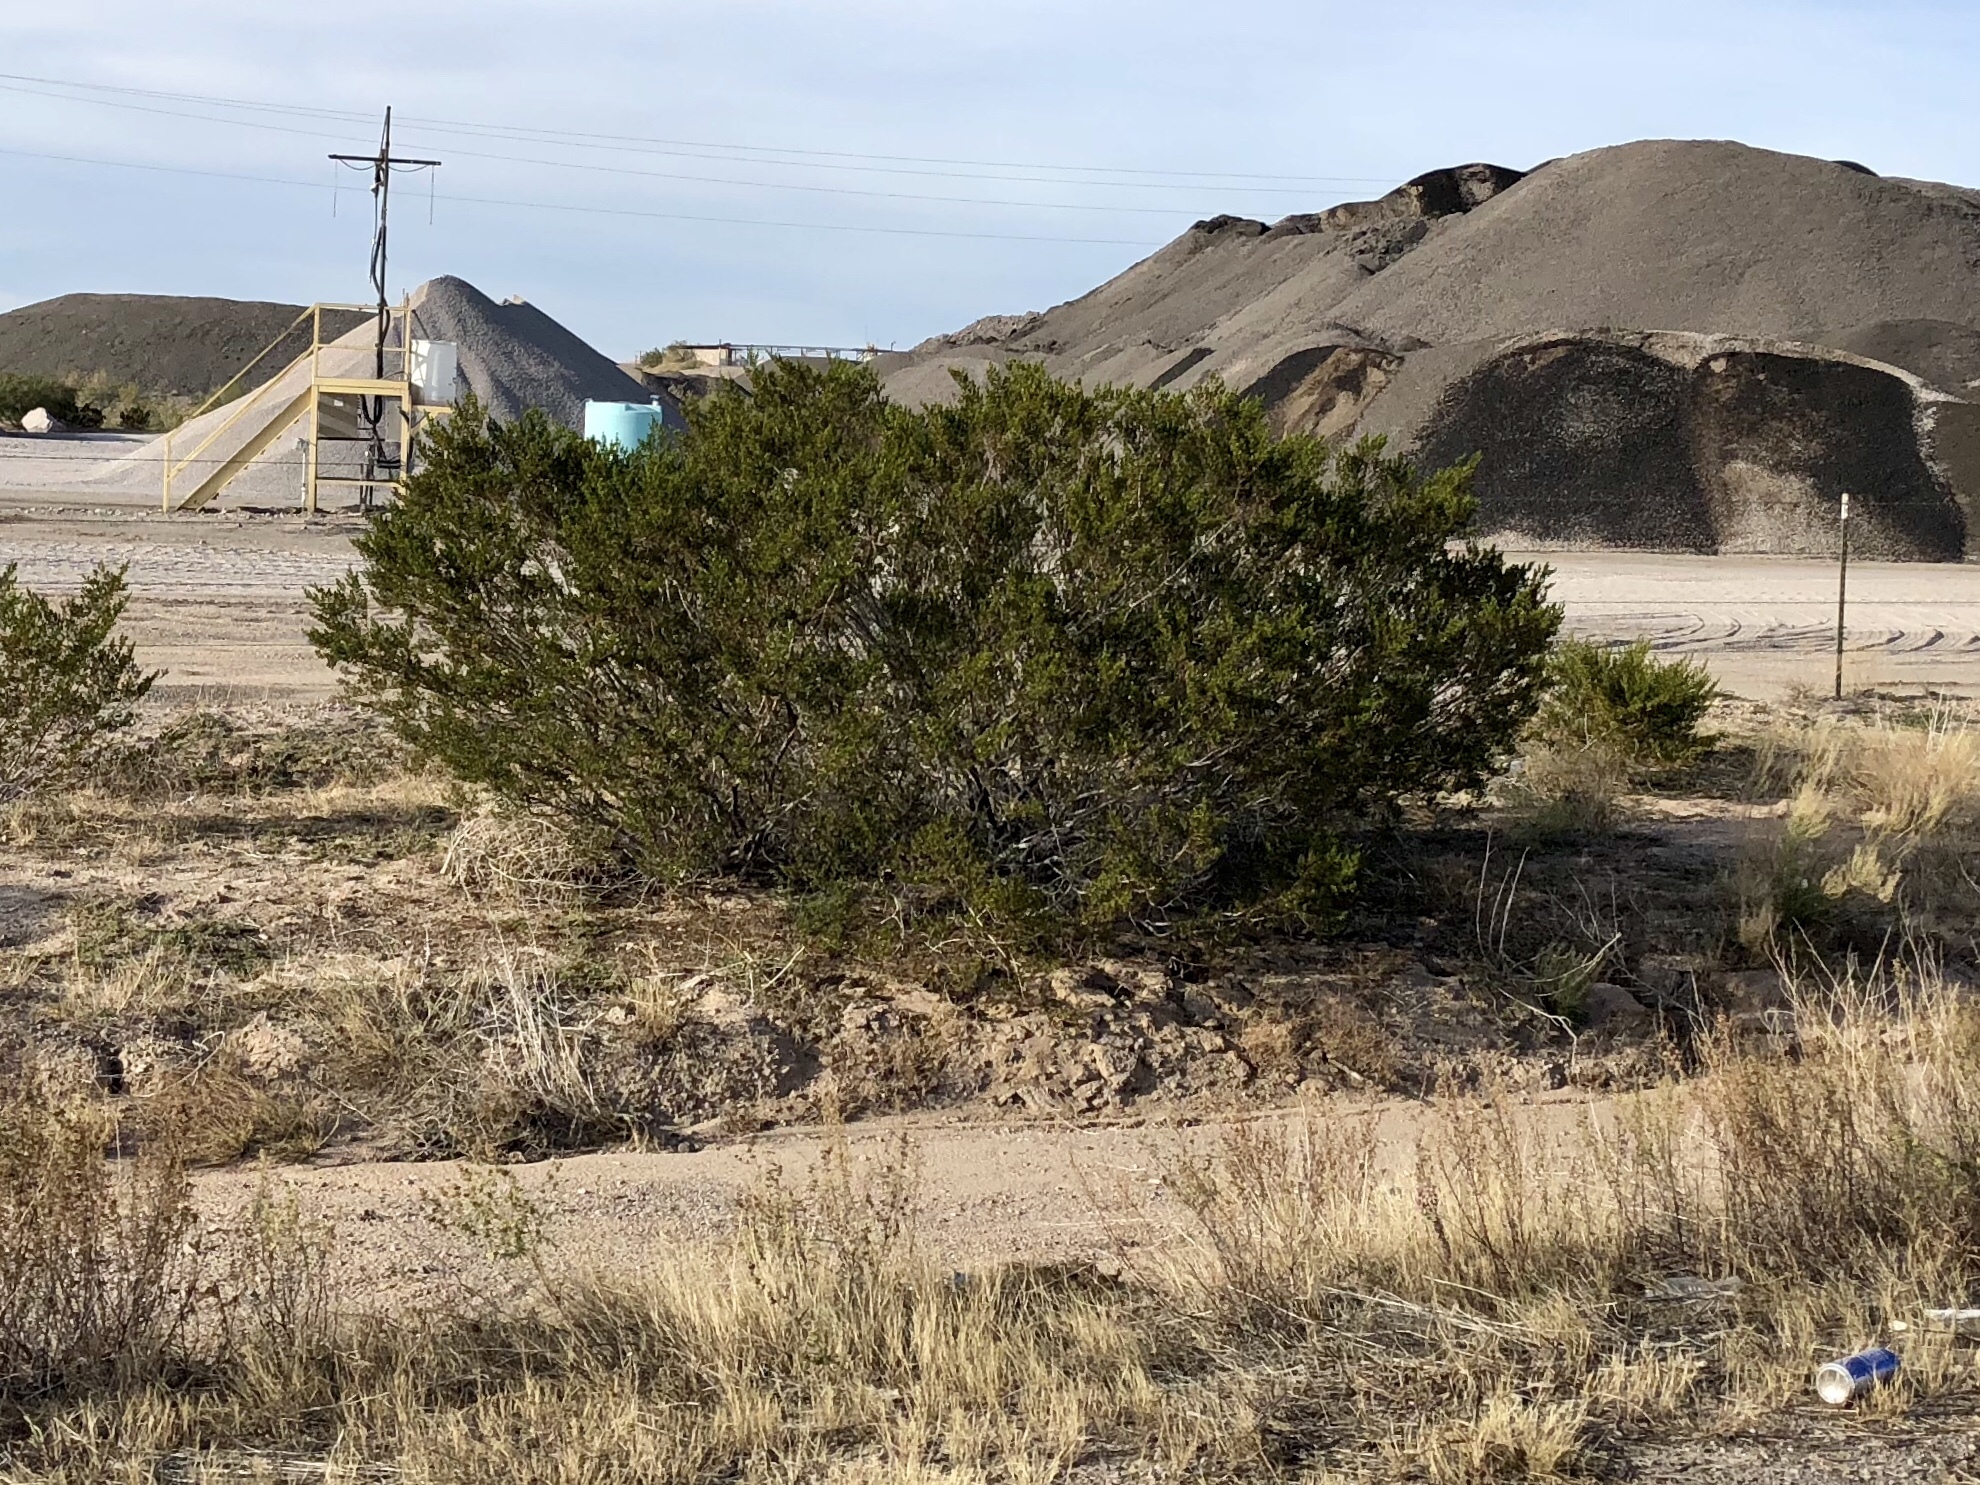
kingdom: Plantae
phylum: Tracheophyta
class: Magnoliopsida
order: Zygophyllales
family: Zygophyllaceae
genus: Larrea
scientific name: Larrea tridentata
